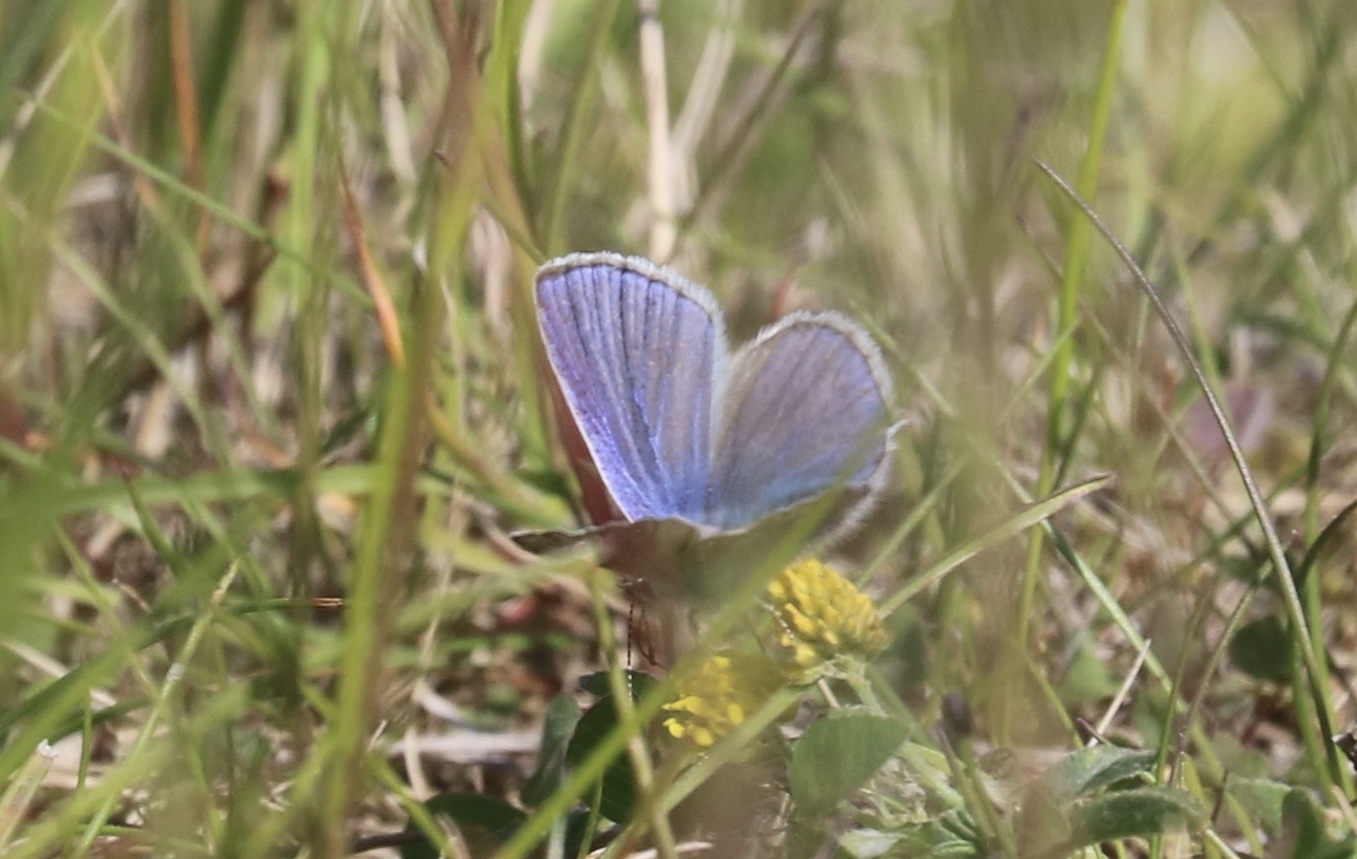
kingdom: Animalia
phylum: Arthropoda
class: Insecta
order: Lepidoptera
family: Lycaenidae
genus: Polyommatus
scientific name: Polyommatus icarus
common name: Common blue
